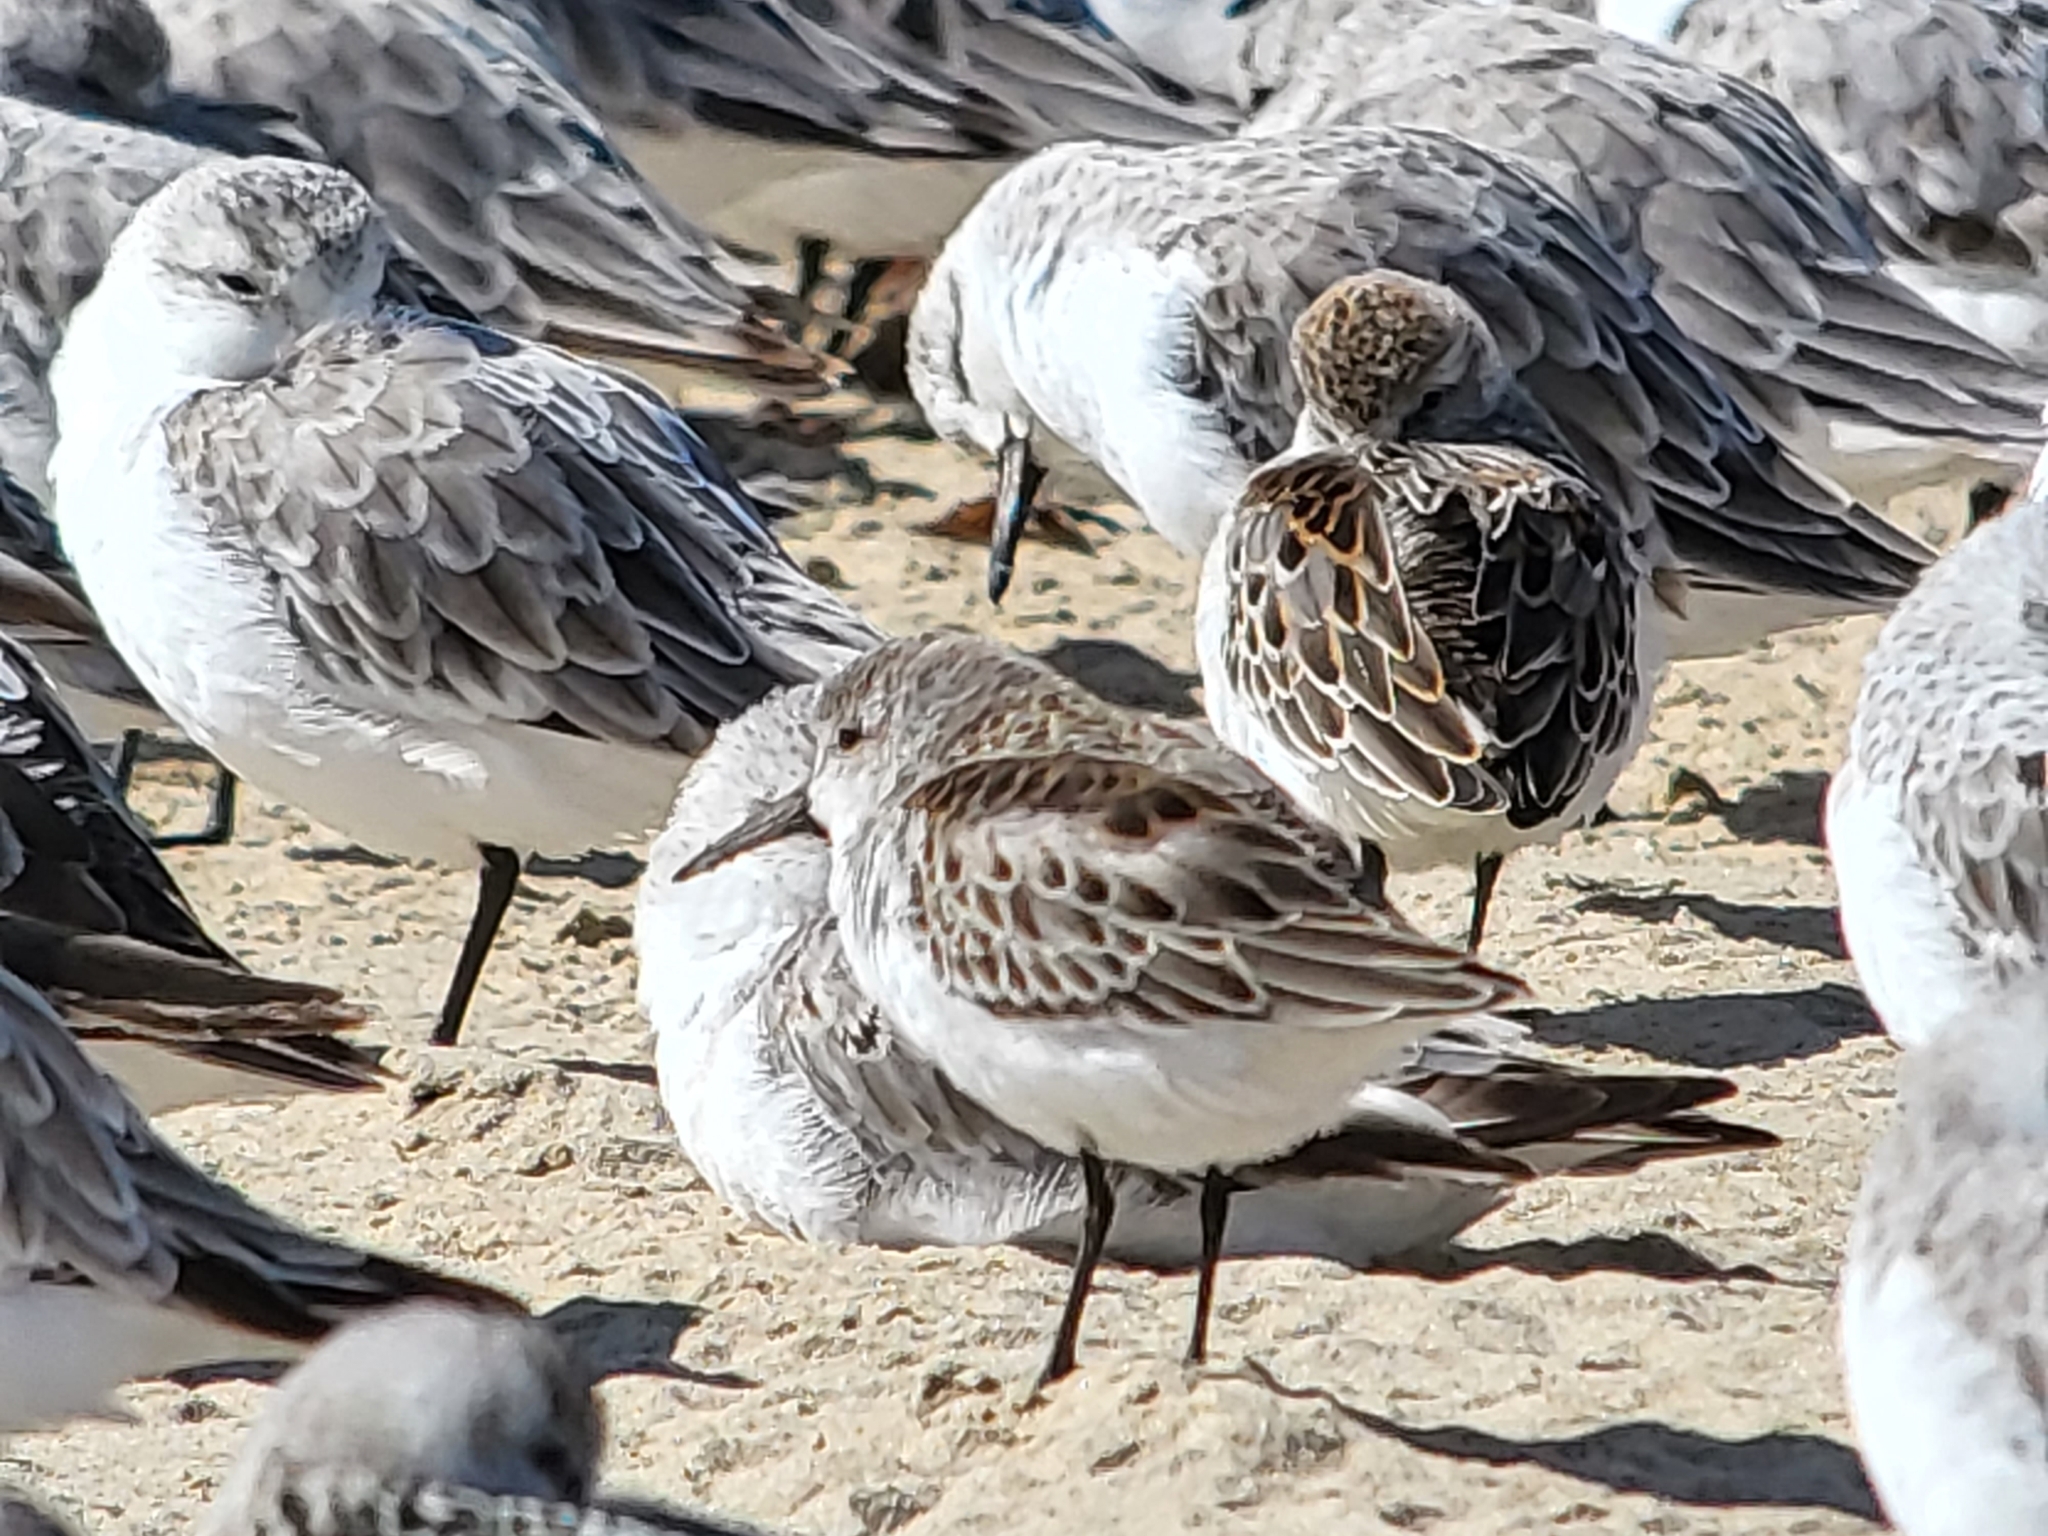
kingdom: Animalia
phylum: Chordata
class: Aves
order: Charadriiformes
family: Scolopacidae
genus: Calidris
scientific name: Calidris mauri
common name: Western sandpiper
